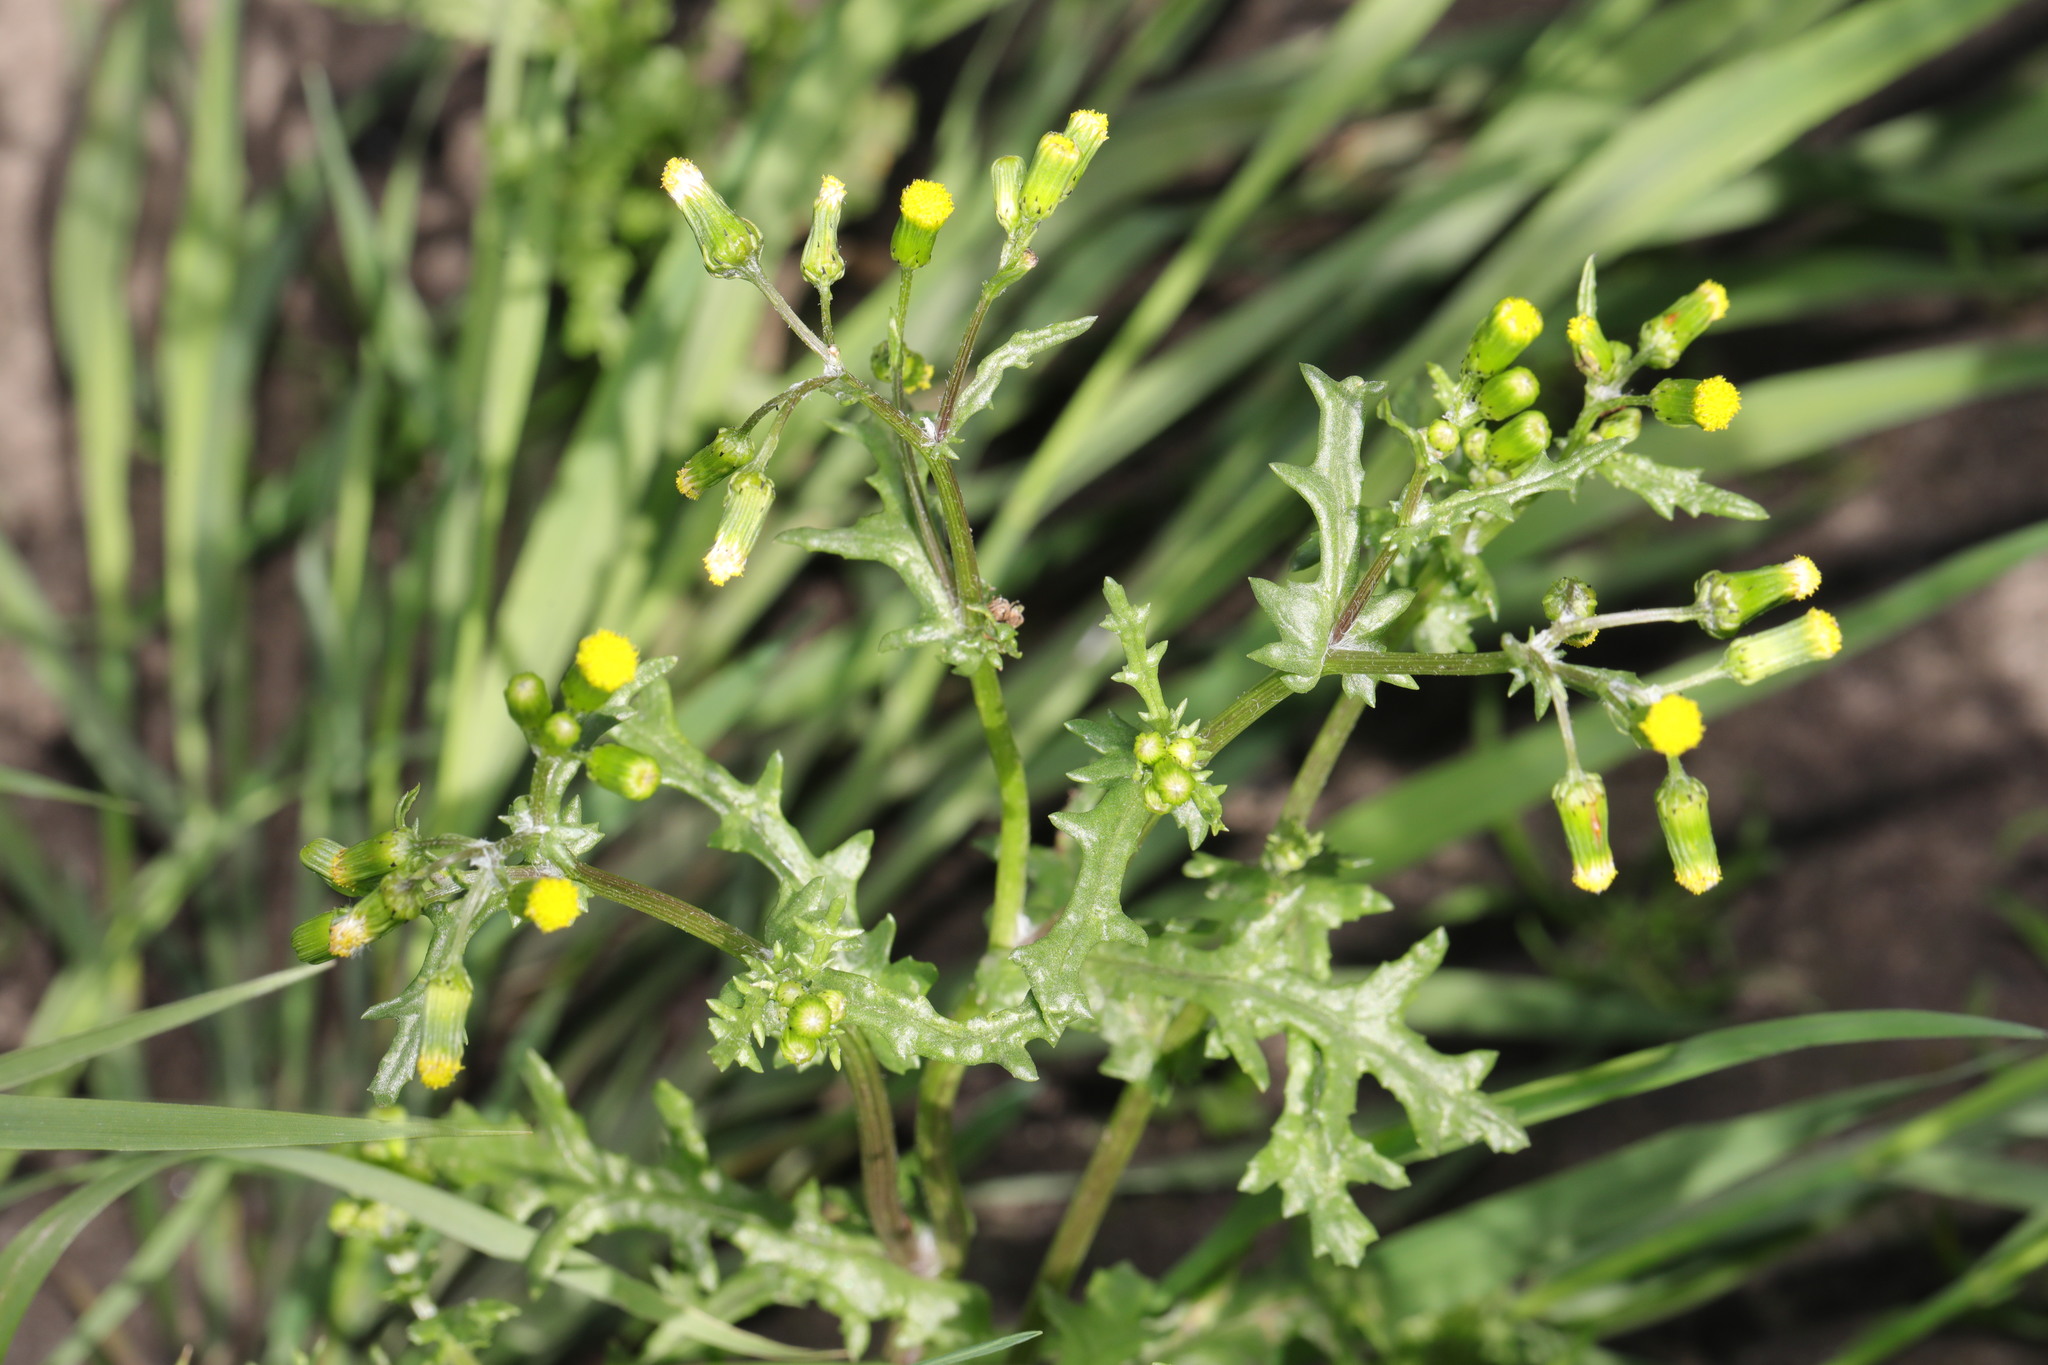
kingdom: Plantae
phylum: Tracheophyta
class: Magnoliopsida
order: Asterales
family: Asteraceae
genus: Senecio
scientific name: Senecio vulgaris
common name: Old-man-in-the-spring
